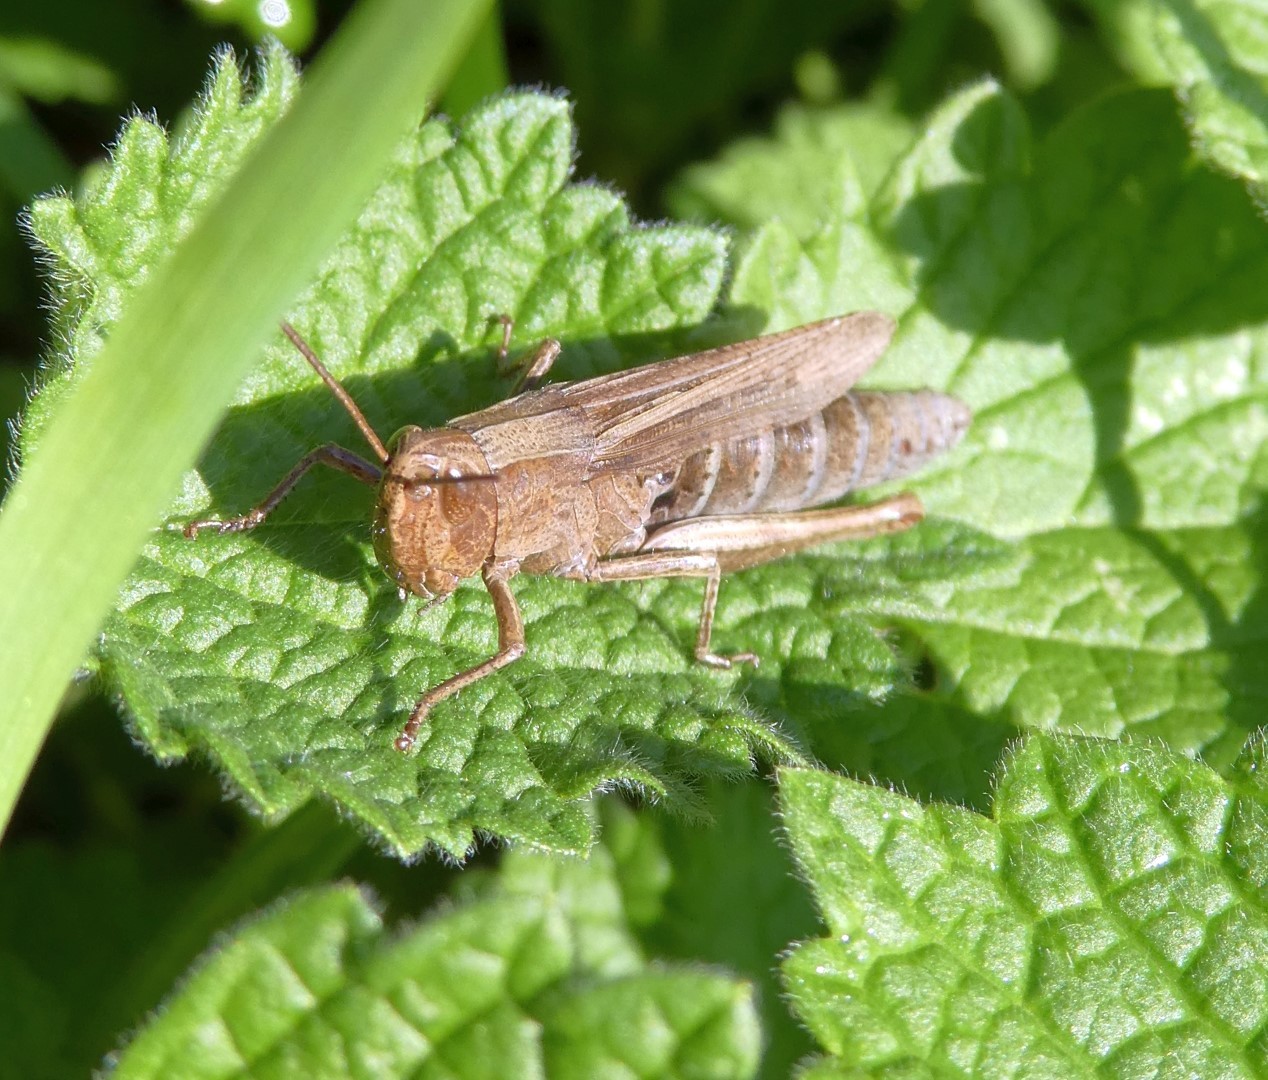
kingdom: Animalia
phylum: Arthropoda
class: Insecta
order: Orthoptera
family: Acrididae
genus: Chorthippus
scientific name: Chorthippus dorsatus
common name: Steppe grasshopper
